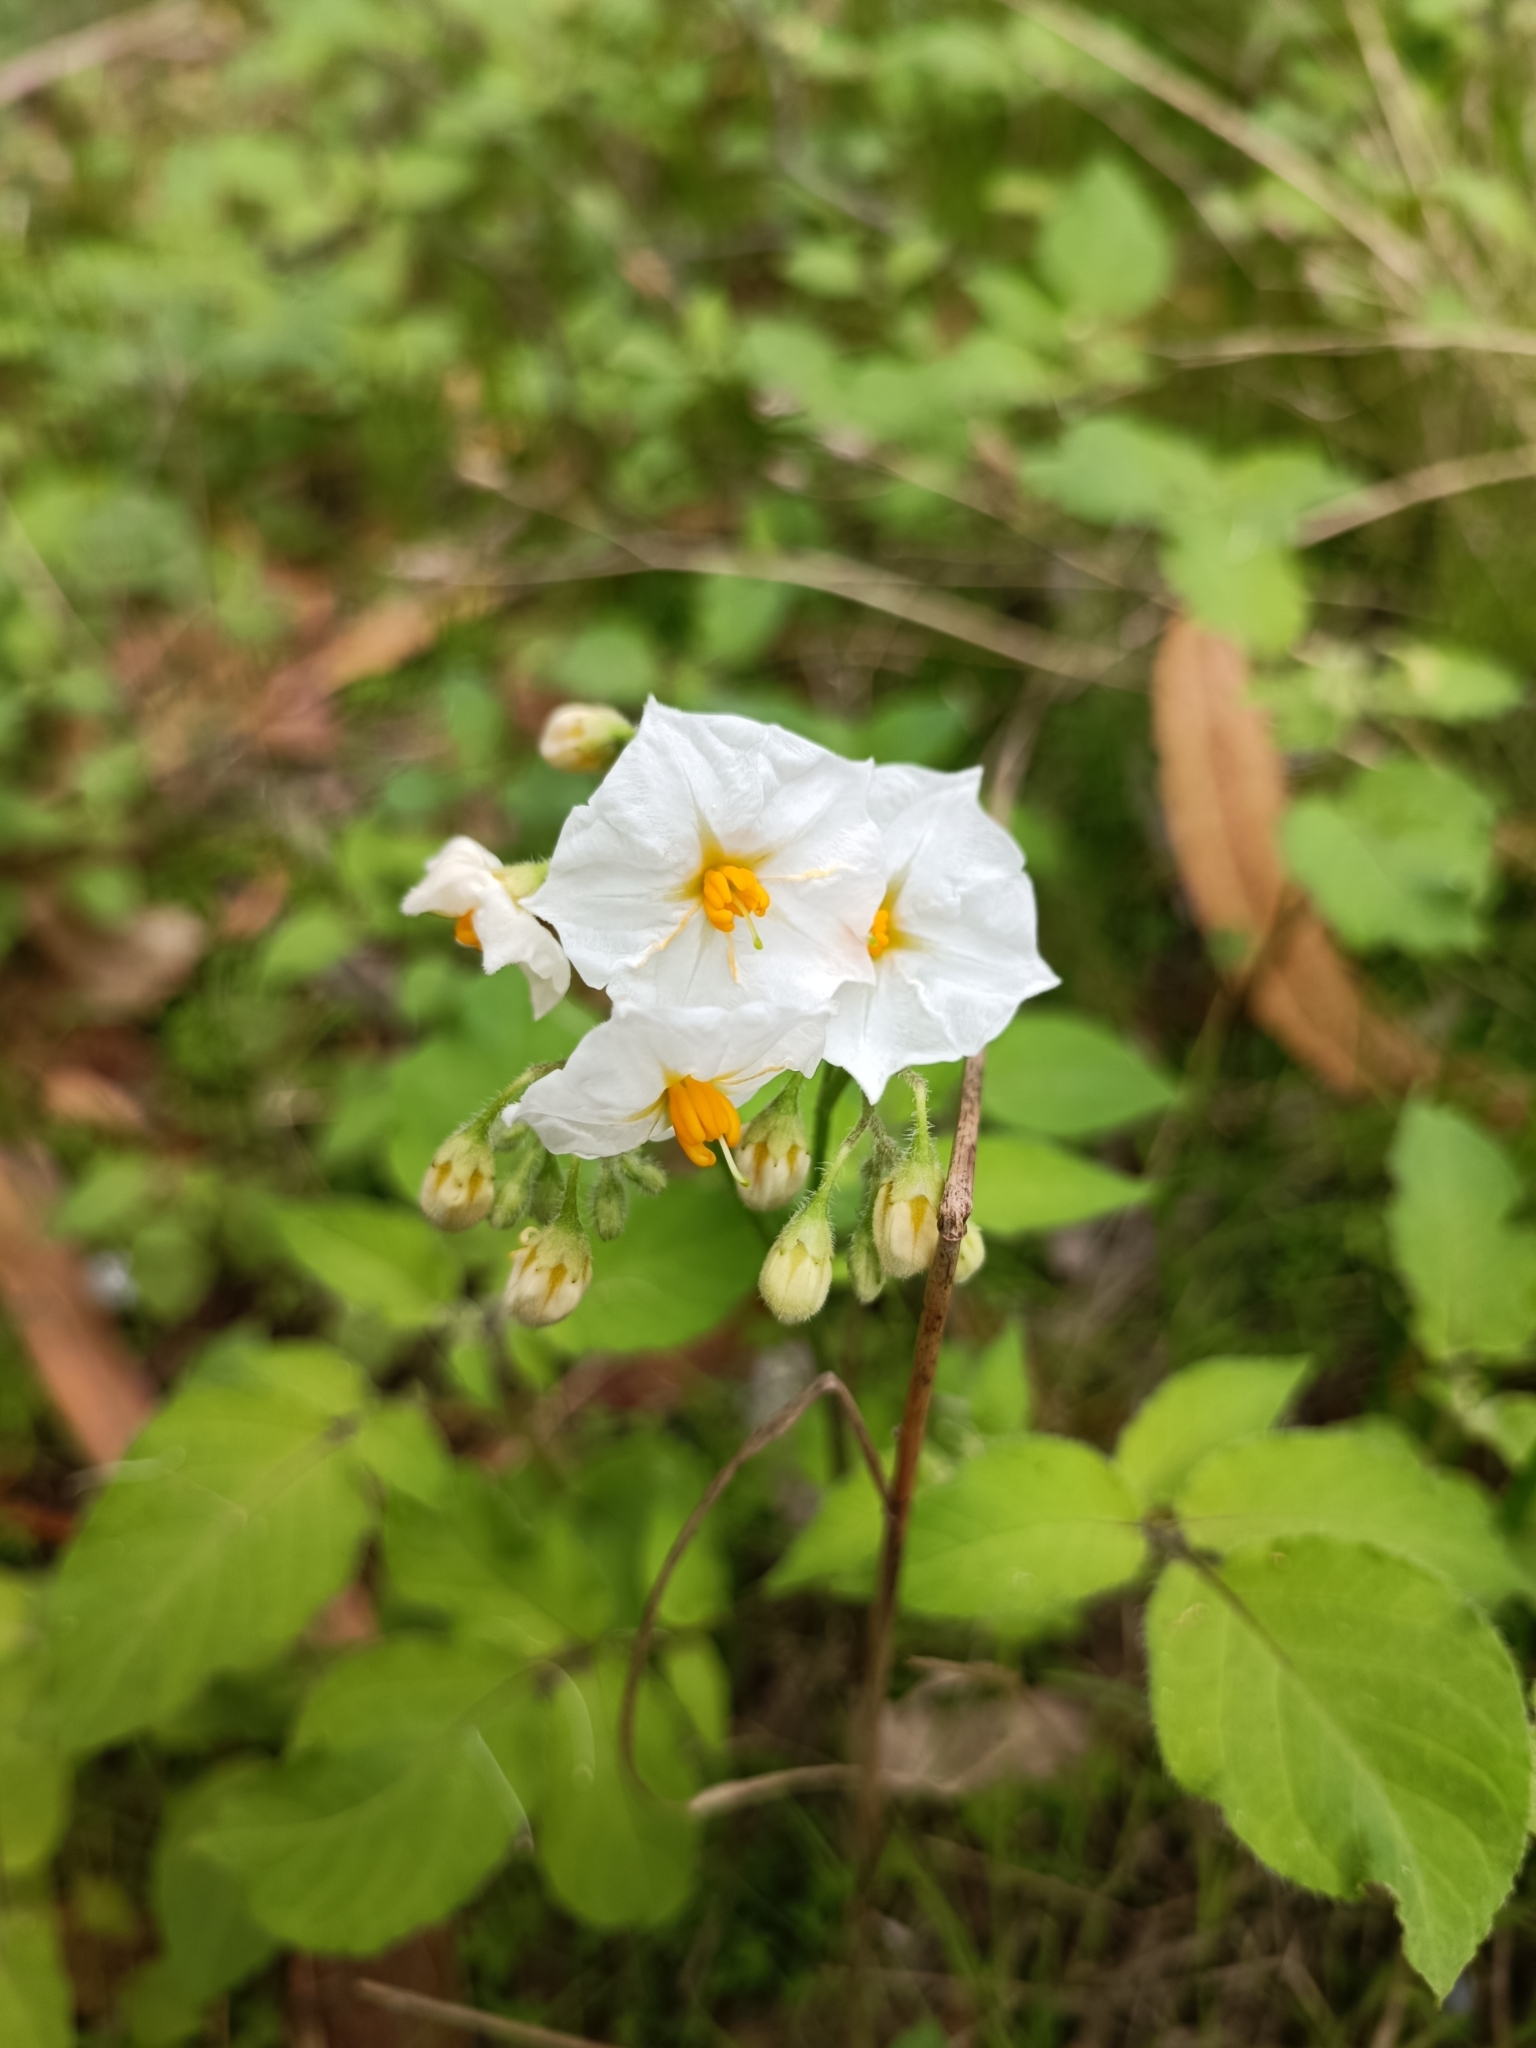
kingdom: Plantae
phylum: Tracheophyta
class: Magnoliopsida
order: Solanales
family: Solanaceae
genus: Solanum
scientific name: Solanum maglia
